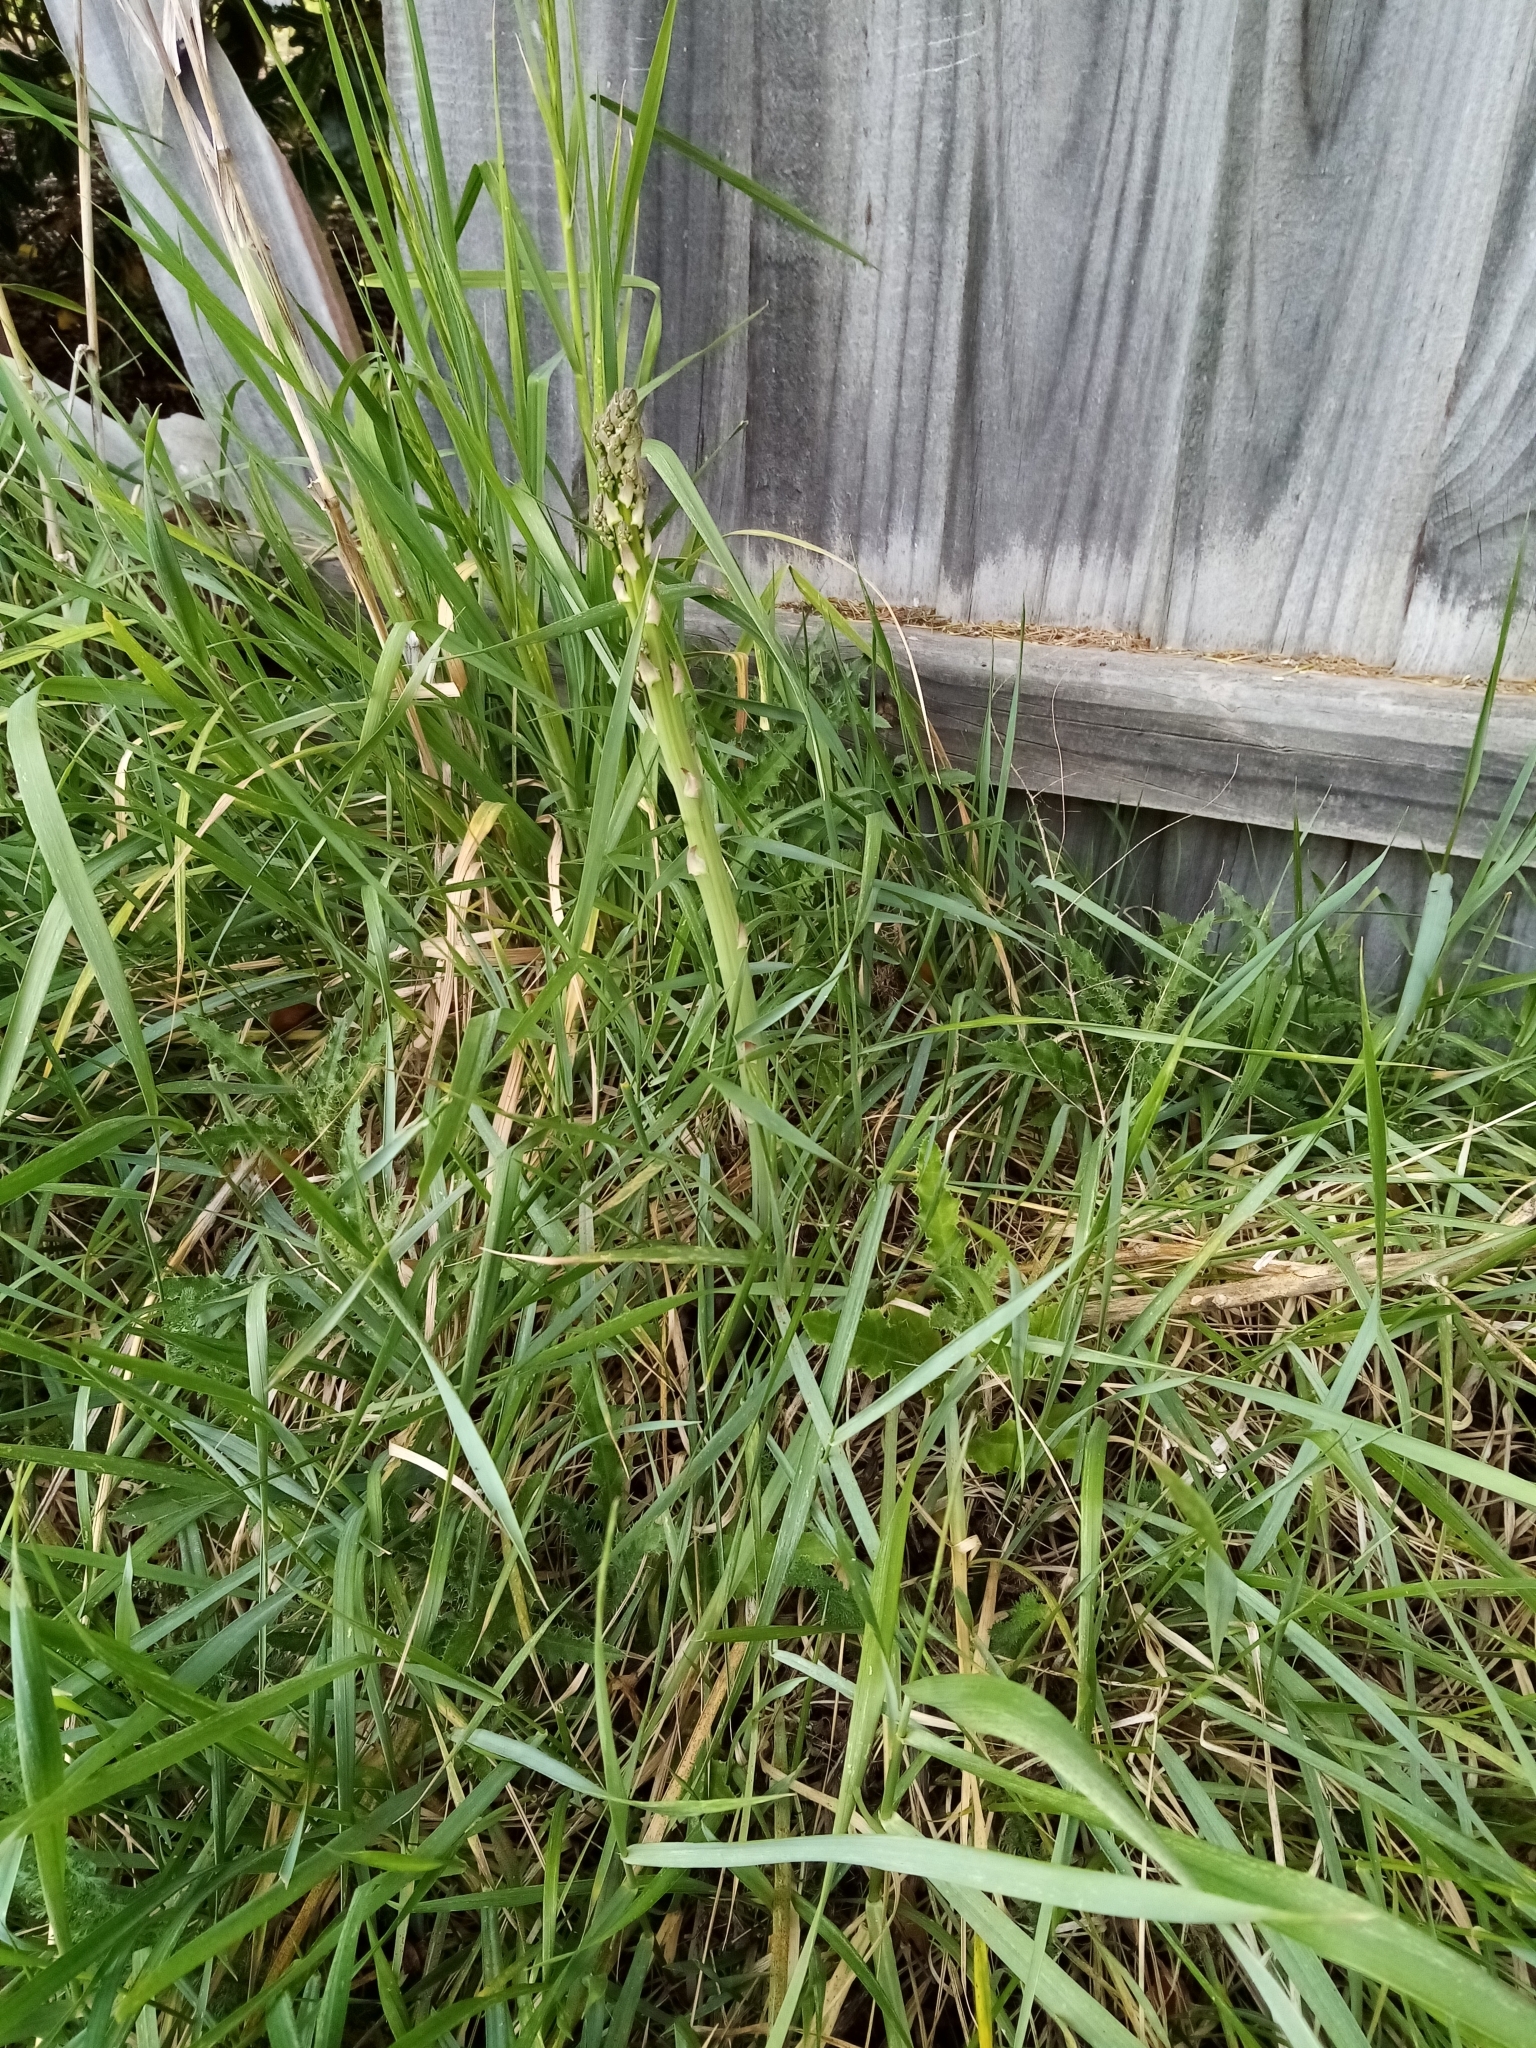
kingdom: Plantae
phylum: Tracheophyta
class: Liliopsida
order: Asparagales
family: Asparagaceae
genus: Asparagus
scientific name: Asparagus officinalis
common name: Garden asparagus
